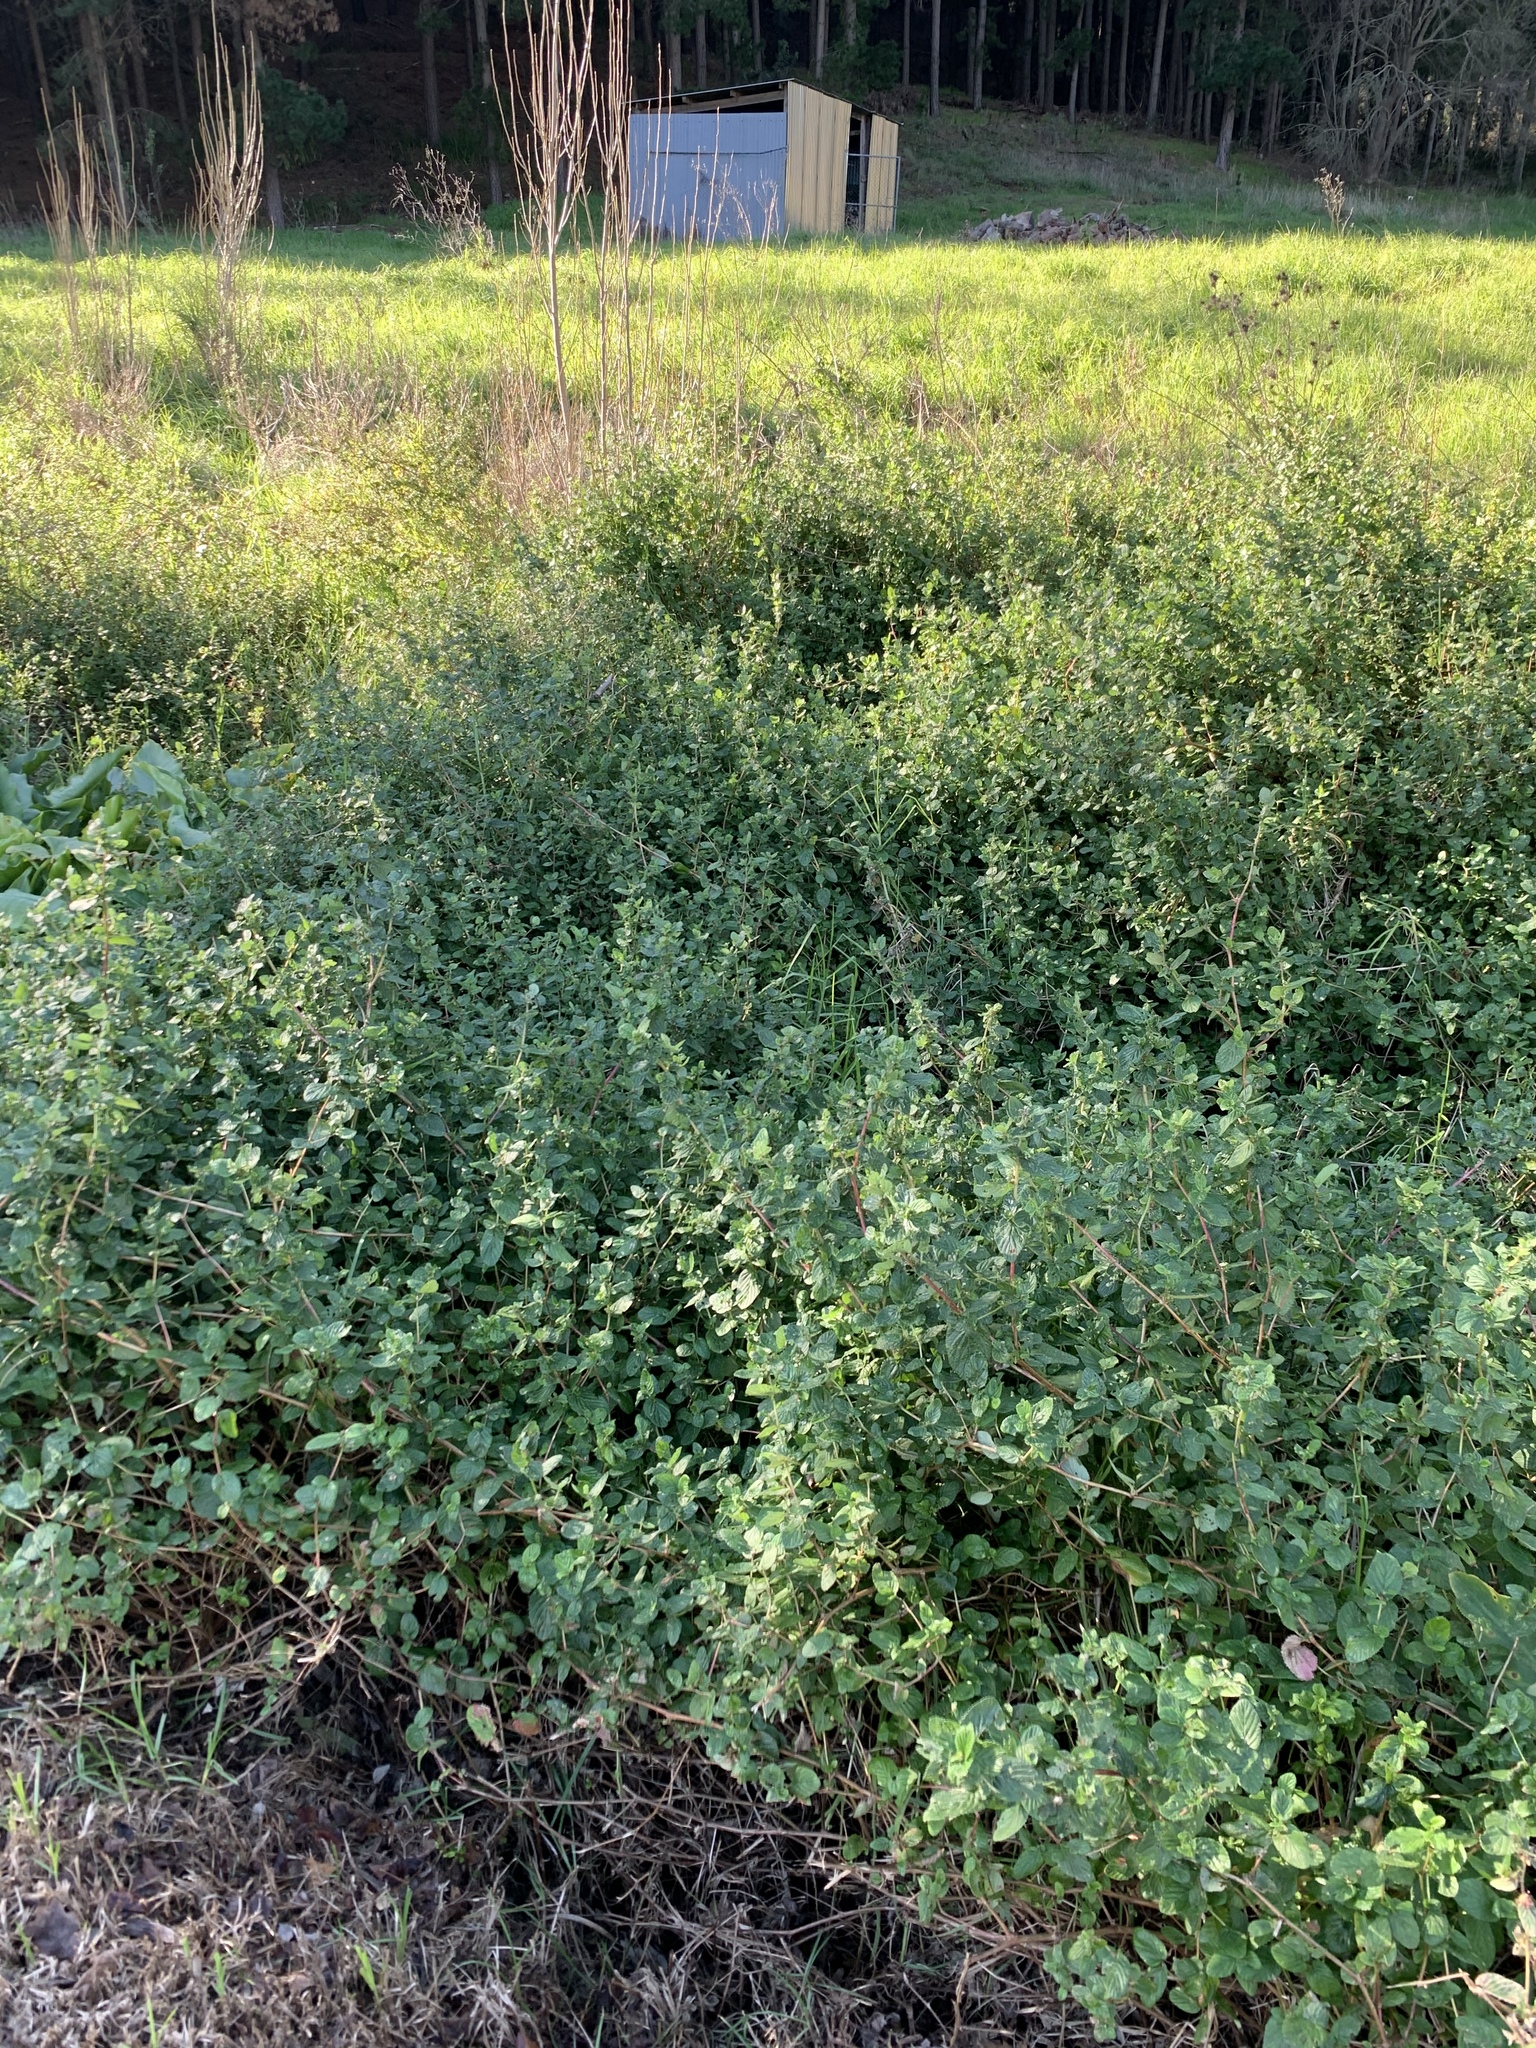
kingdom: Plantae
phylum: Tracheophyta
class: Magnoliopsida
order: Rosales
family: Rosaceae
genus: Cliffortia
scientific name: Cliffortia odorata
